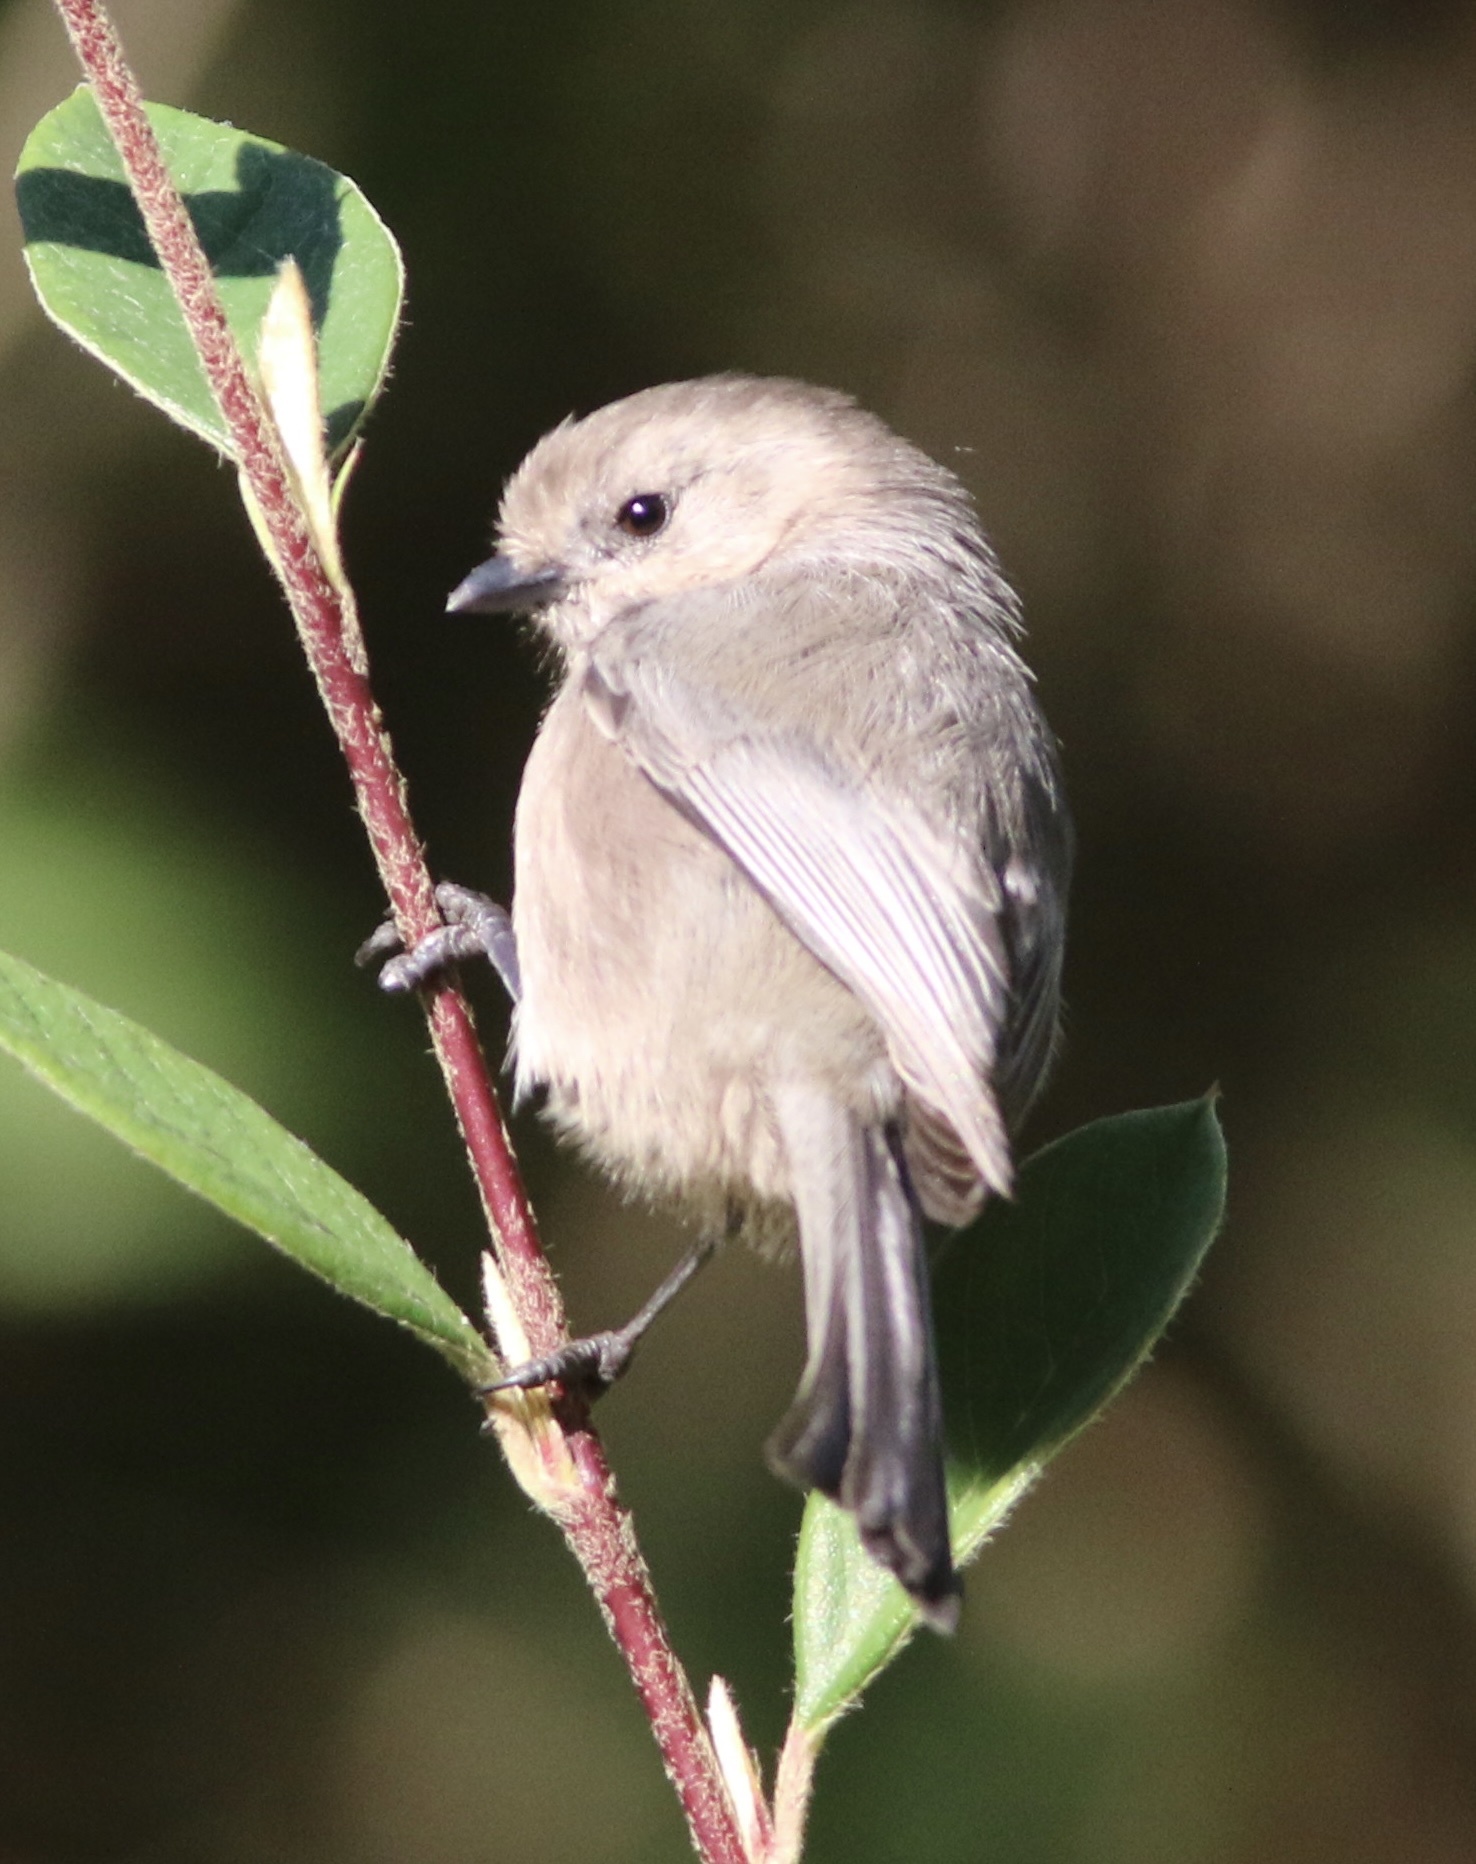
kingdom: Animalia
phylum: Chordata
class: Aves
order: Passeriformes
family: Aegithalidae
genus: Psaltriparus
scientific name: Psaltriparus minimus
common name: American bushtit
